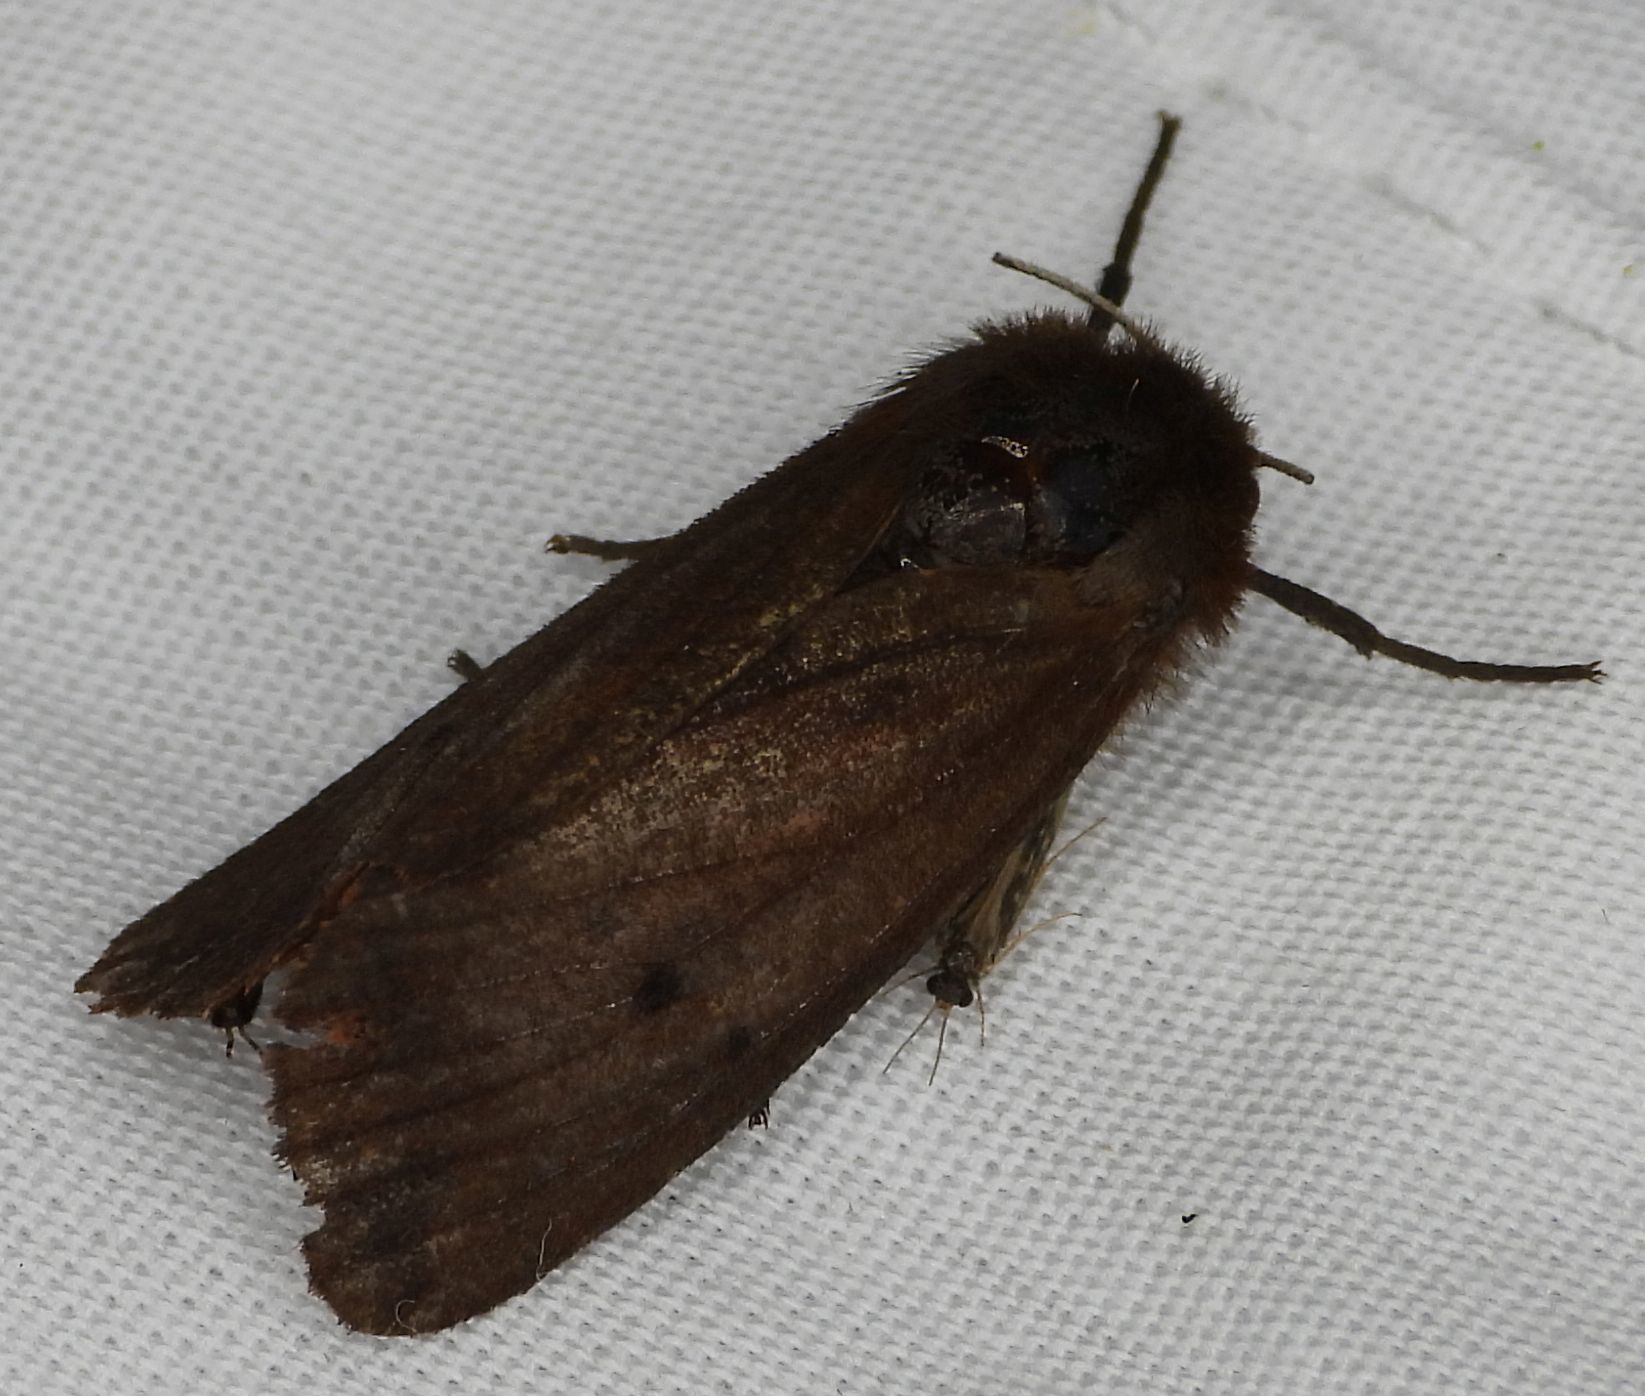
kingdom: Animalia
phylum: Arthropoda
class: Insecta
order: Lepidoptera
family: Erebidae
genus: Phragmatobia
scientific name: Phragmatobia fuliginosa
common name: Ruby tiger
